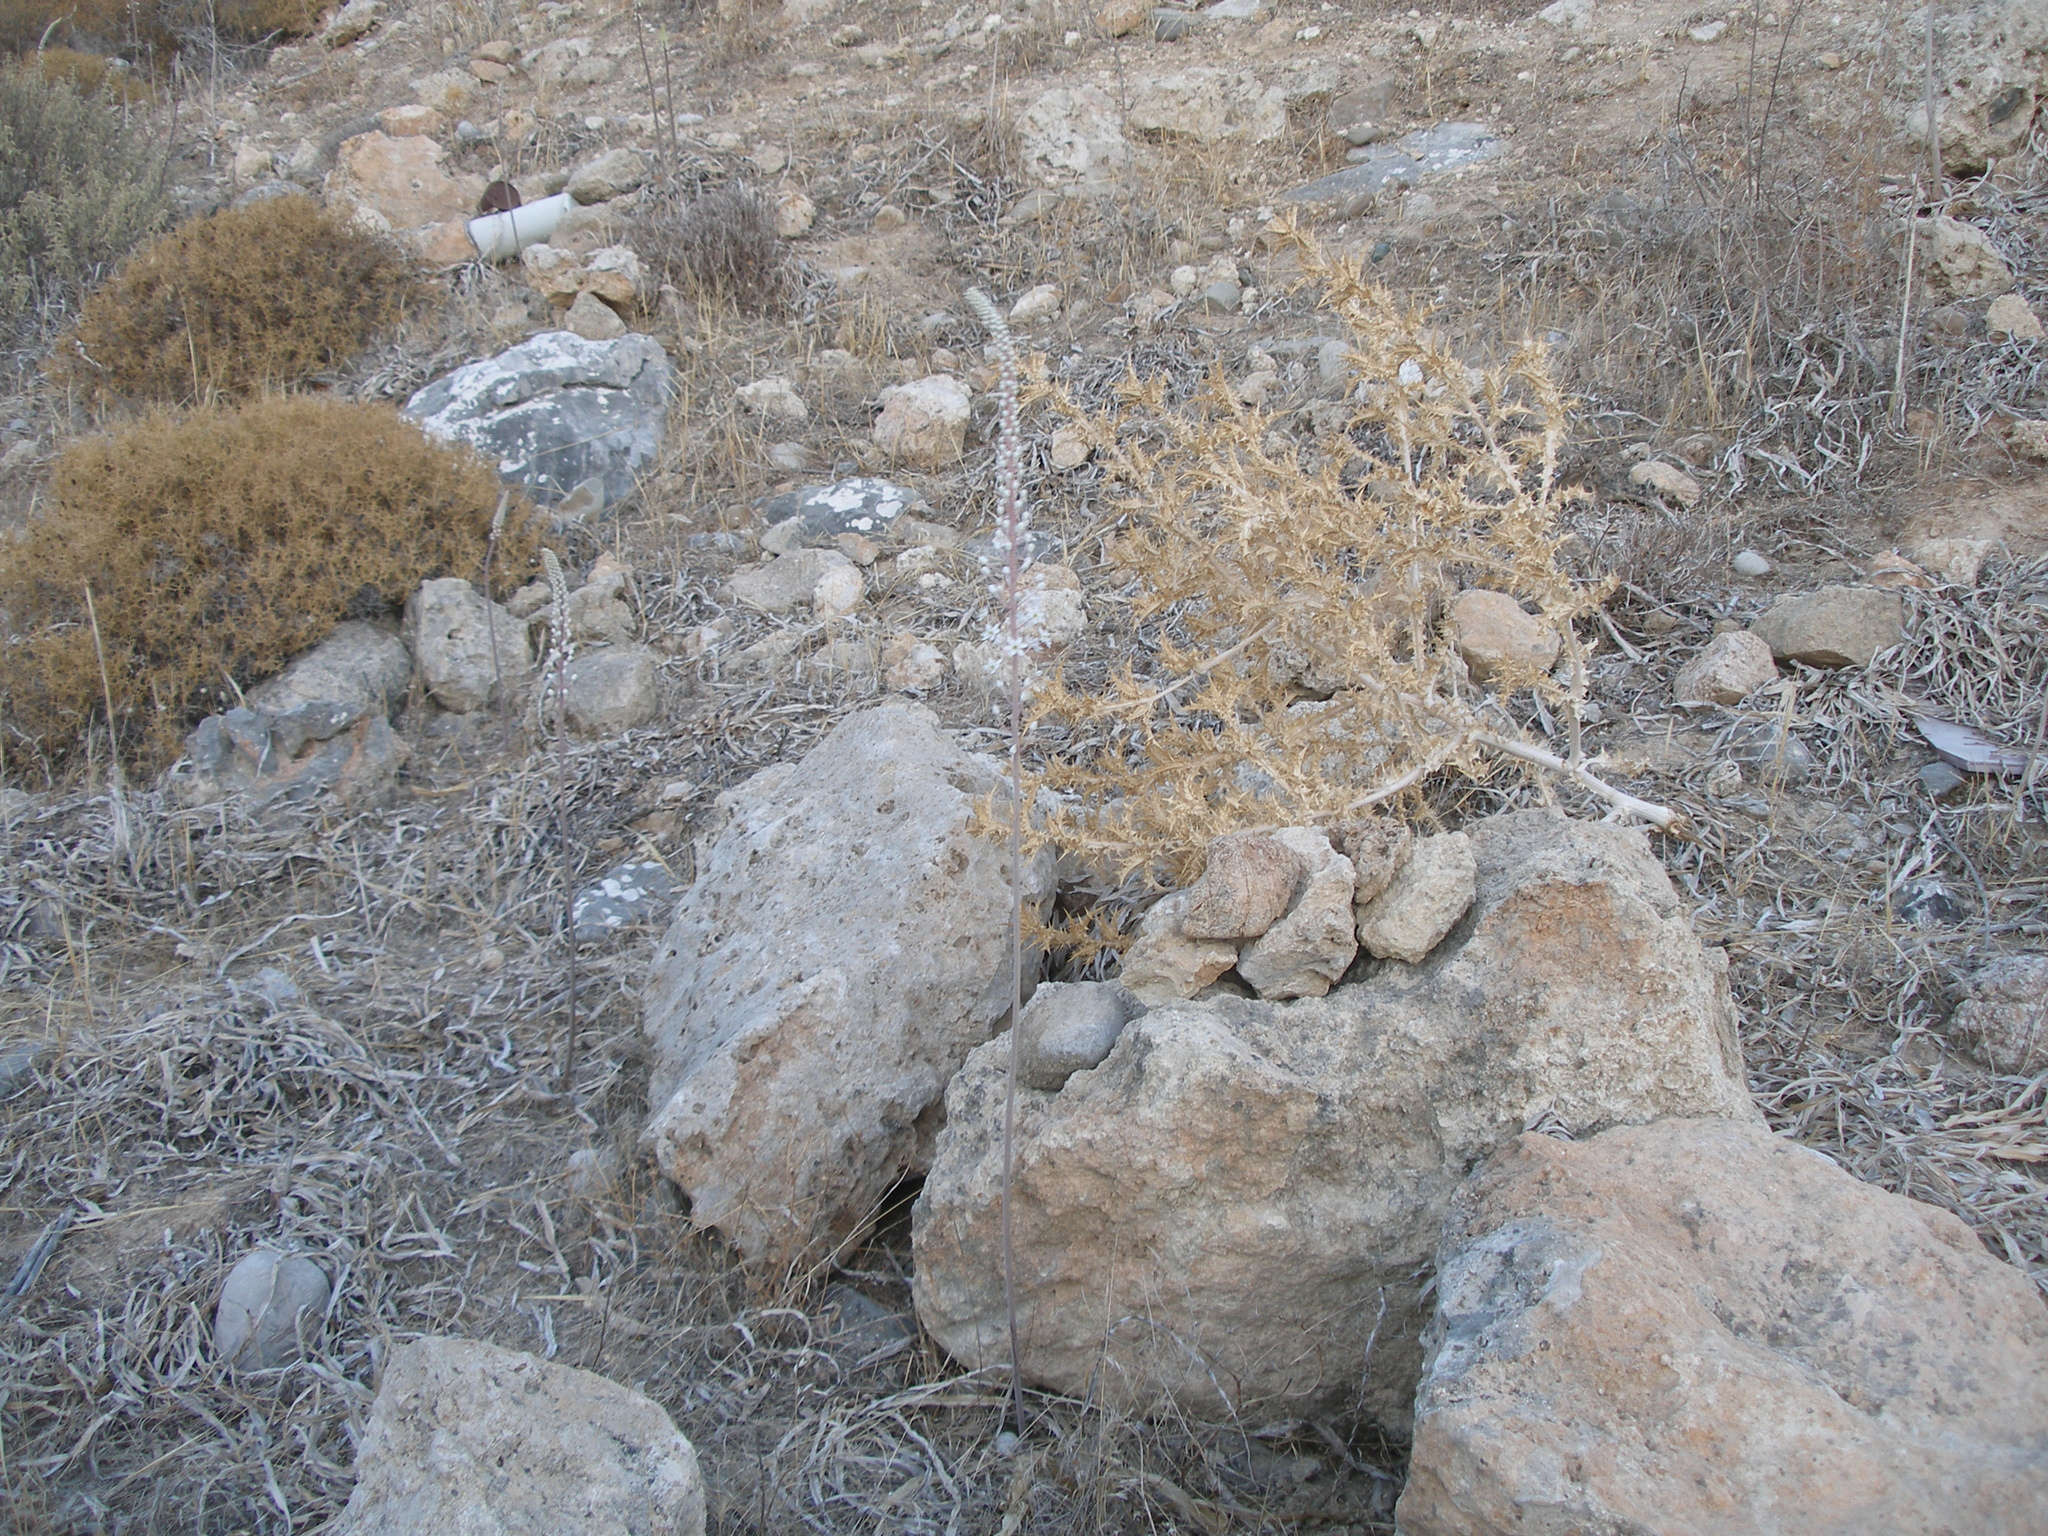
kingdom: Plantae
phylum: Tracheophyta
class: Liliopsida
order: Asparagales
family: Asparagaceae
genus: Drimia
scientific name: Drimia aphylla
